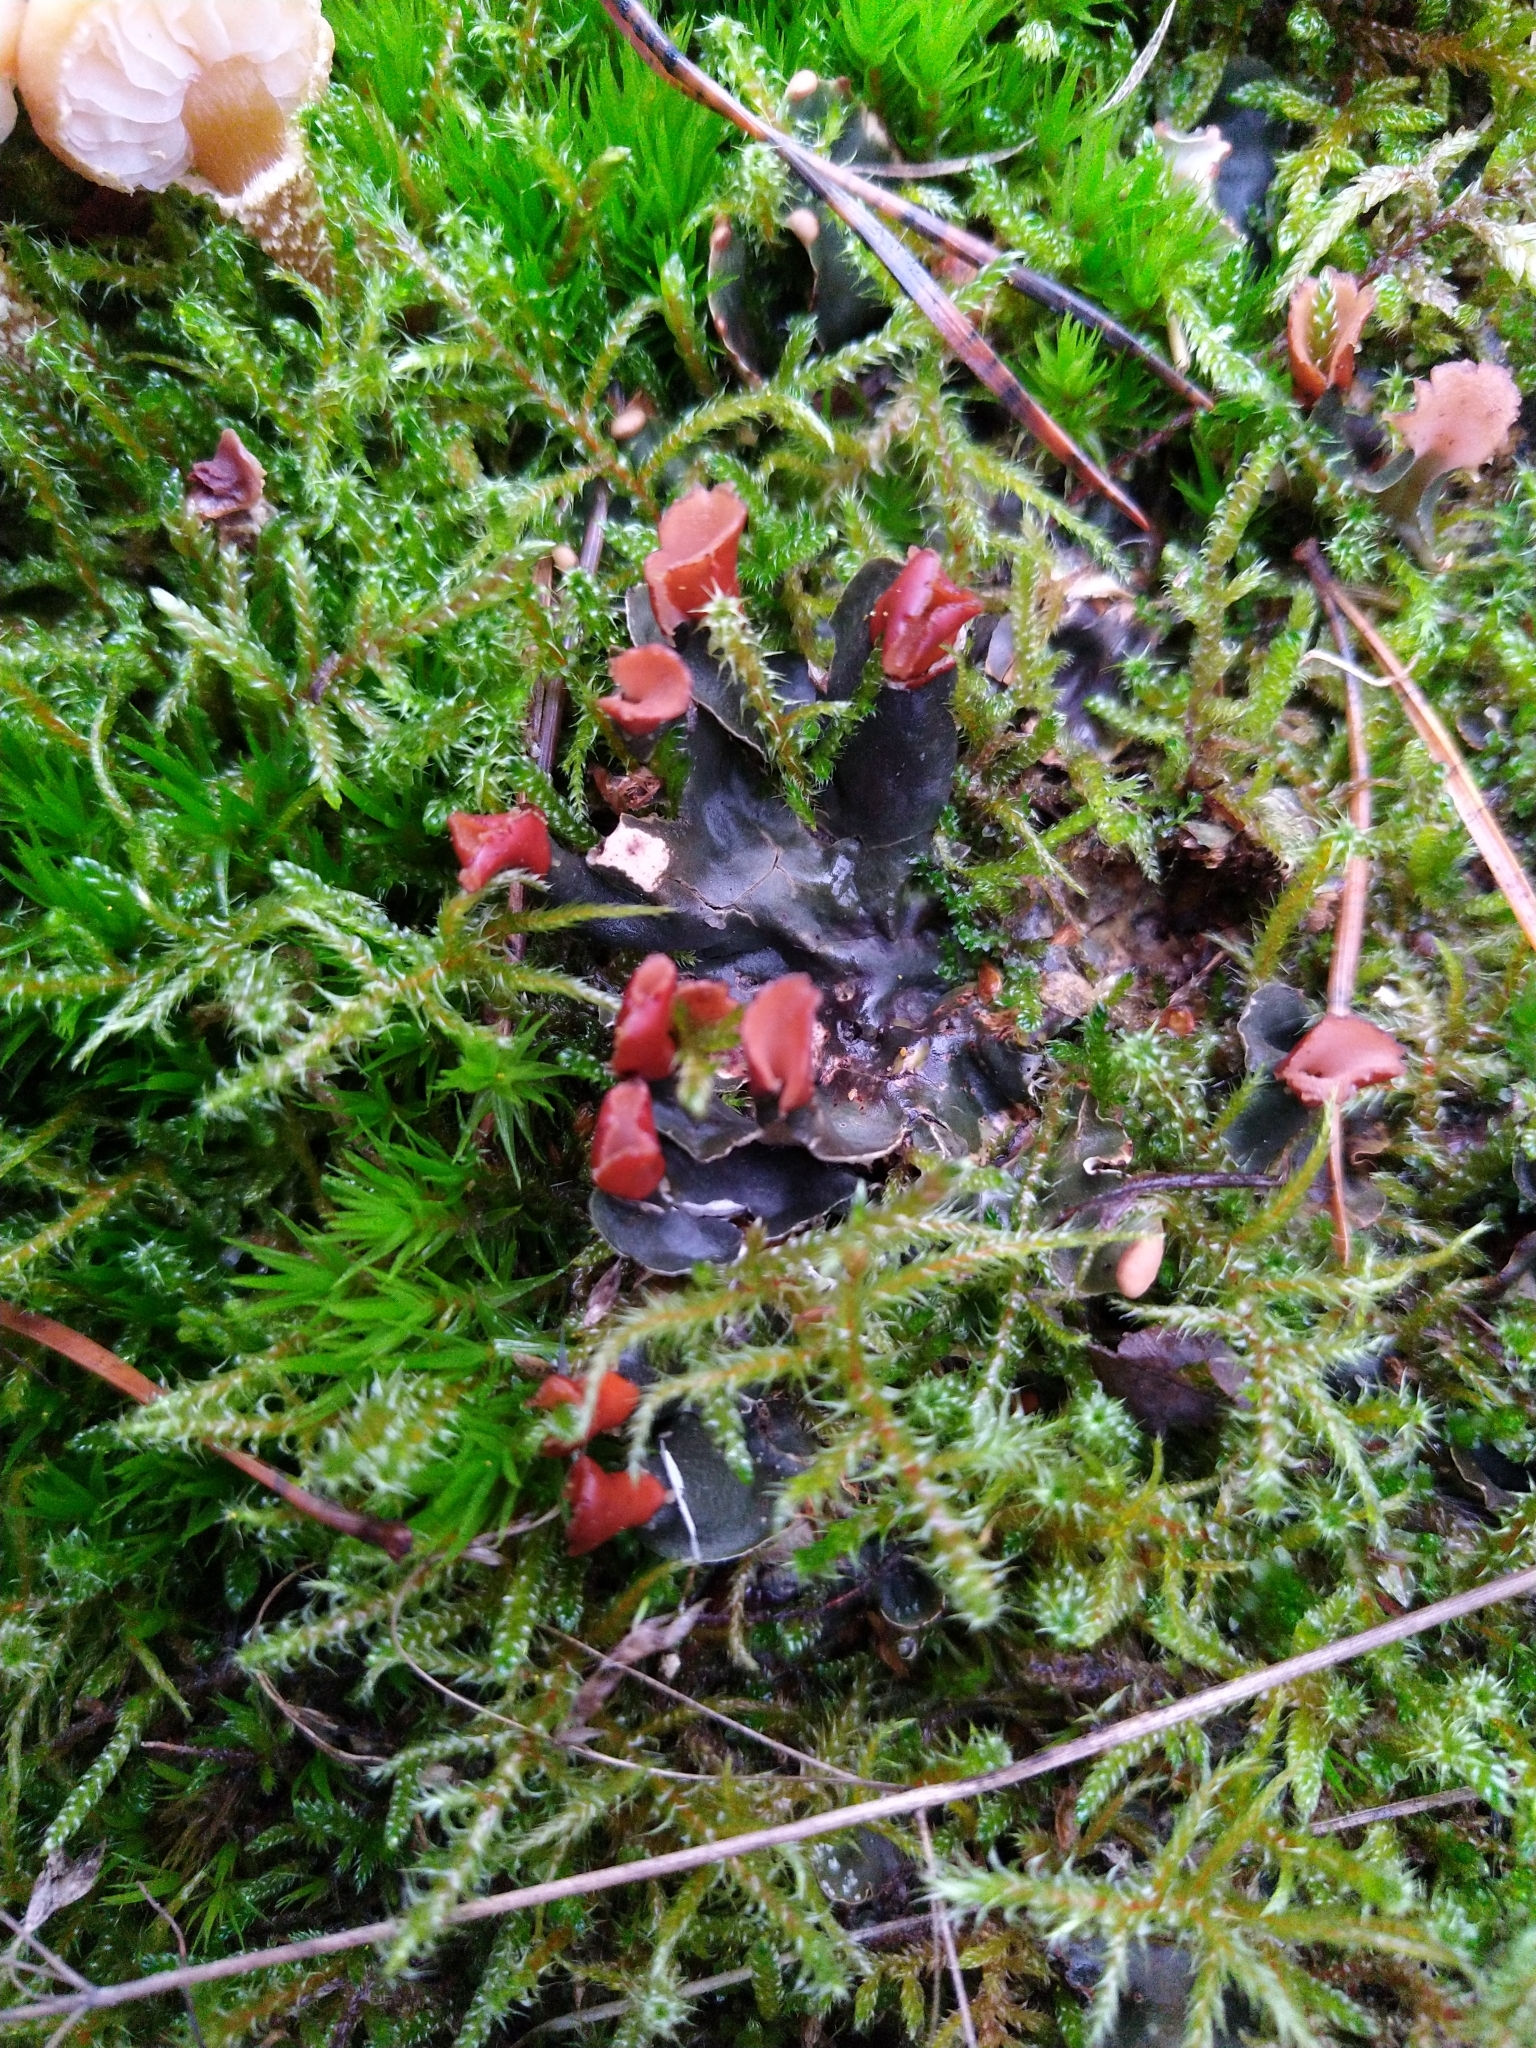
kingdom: Fungi
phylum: Ascomycota
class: Lecanoromycetes
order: Peltigerales
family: Peltigeraceae
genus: Peltigera
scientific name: Peltigera polydactylon
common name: Many-fruited pelt lichen
